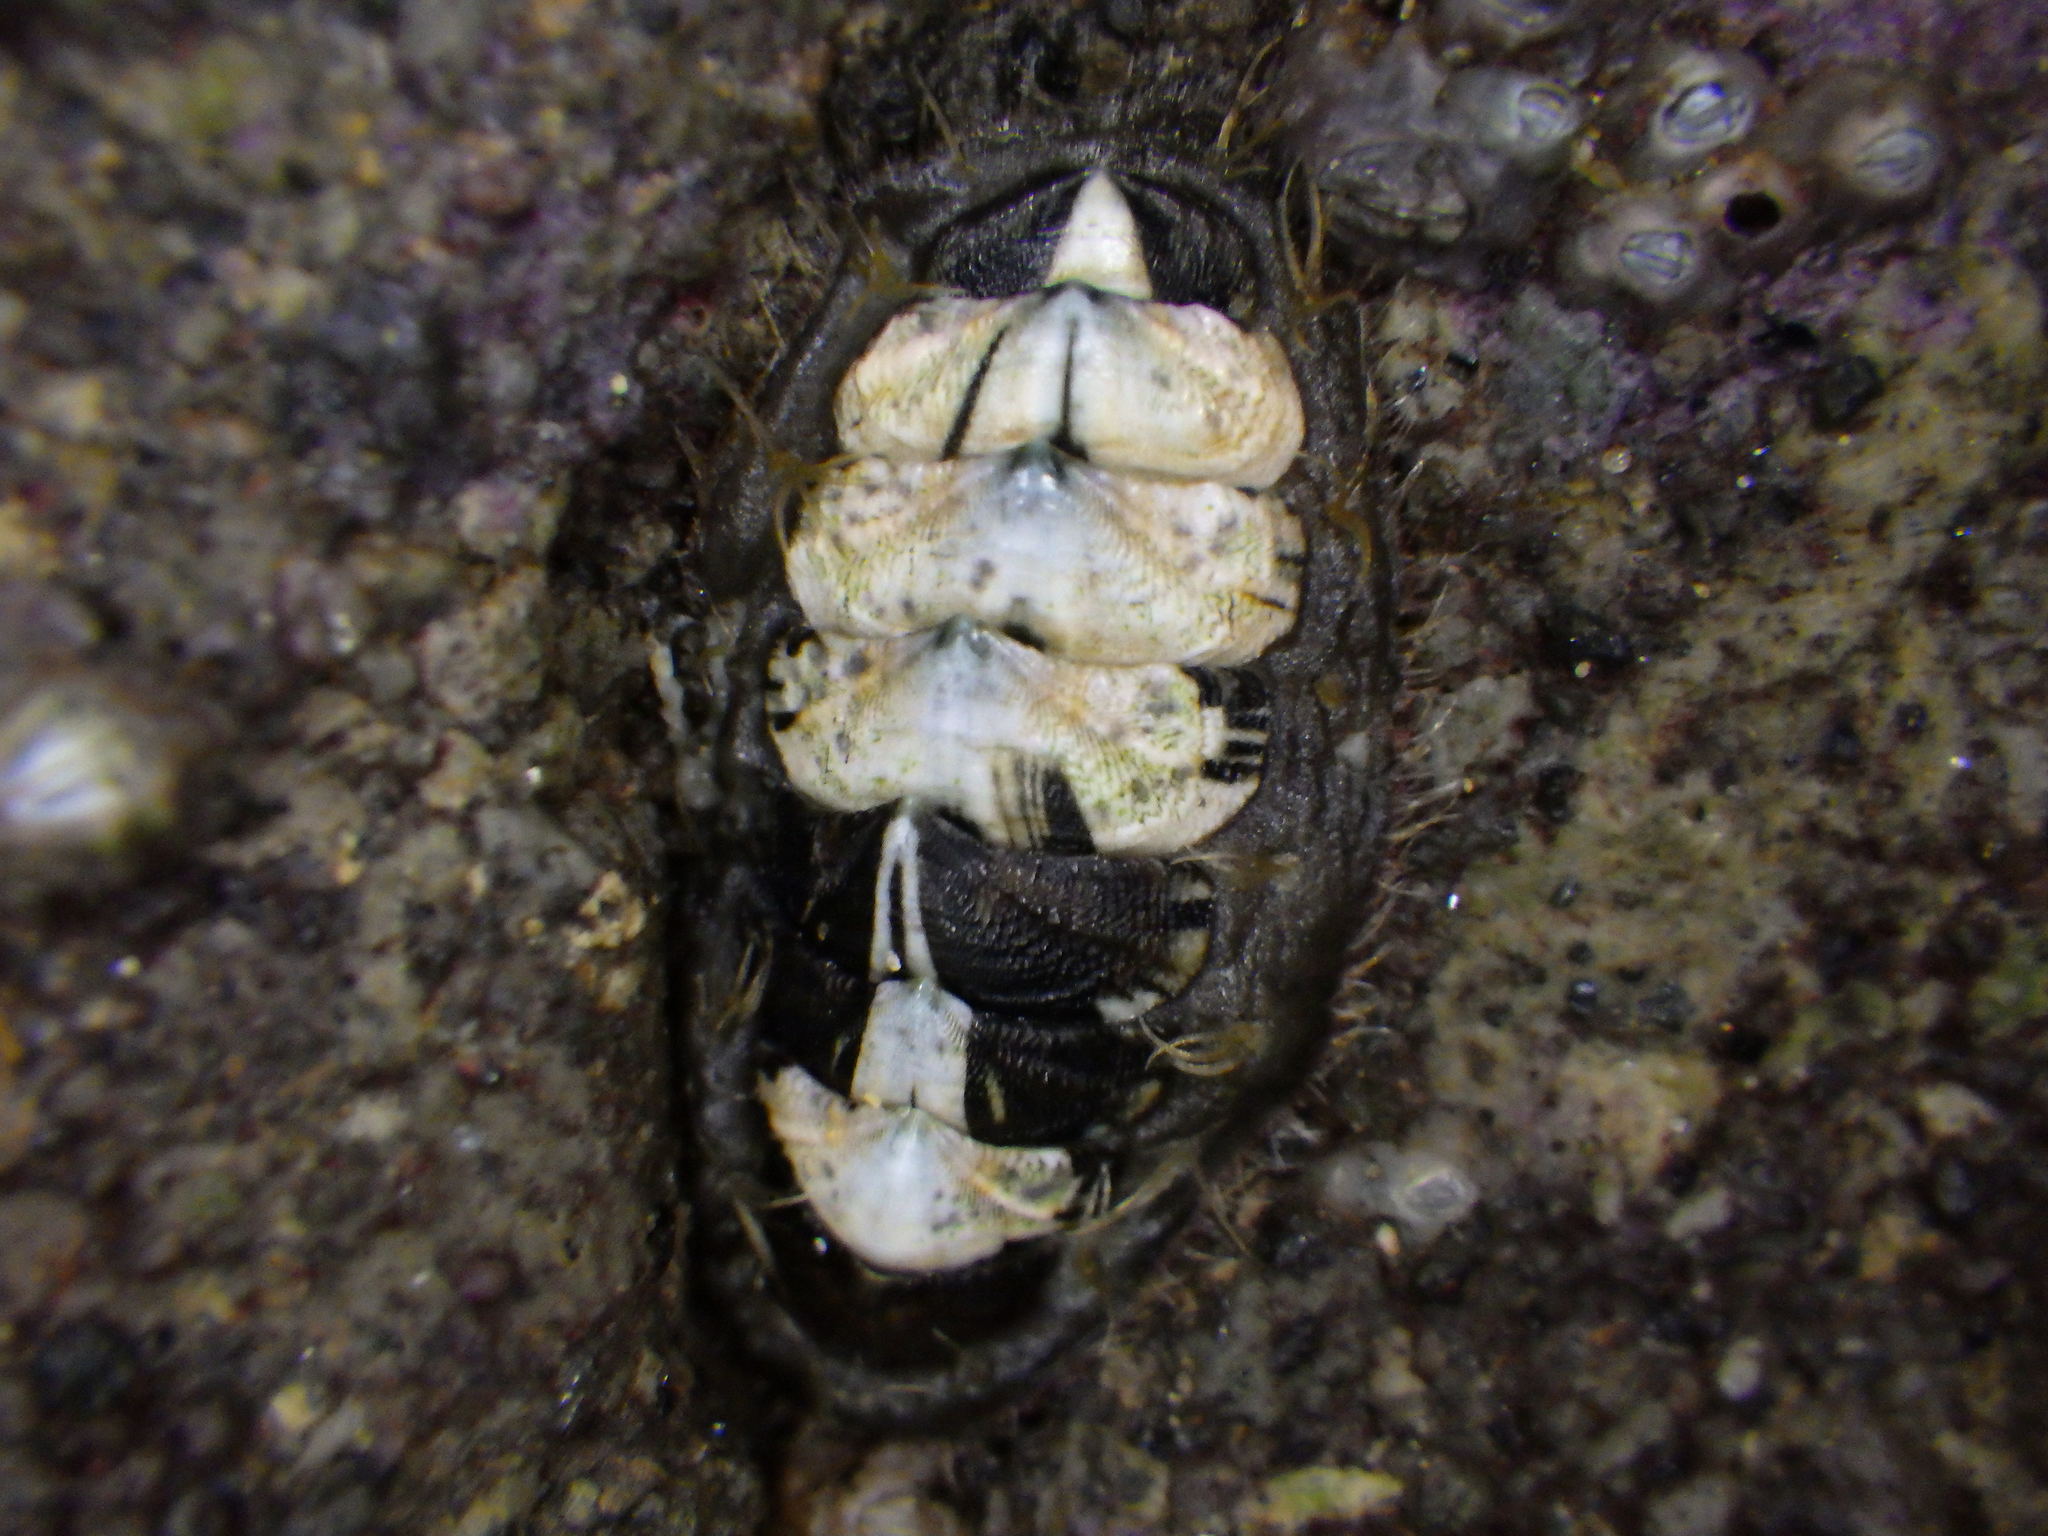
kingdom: Animalia
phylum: Mollusca
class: Polyplacophora
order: Chitonida
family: Mopaliidae
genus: Plaxiphora
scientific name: Plaxiphora caelata
